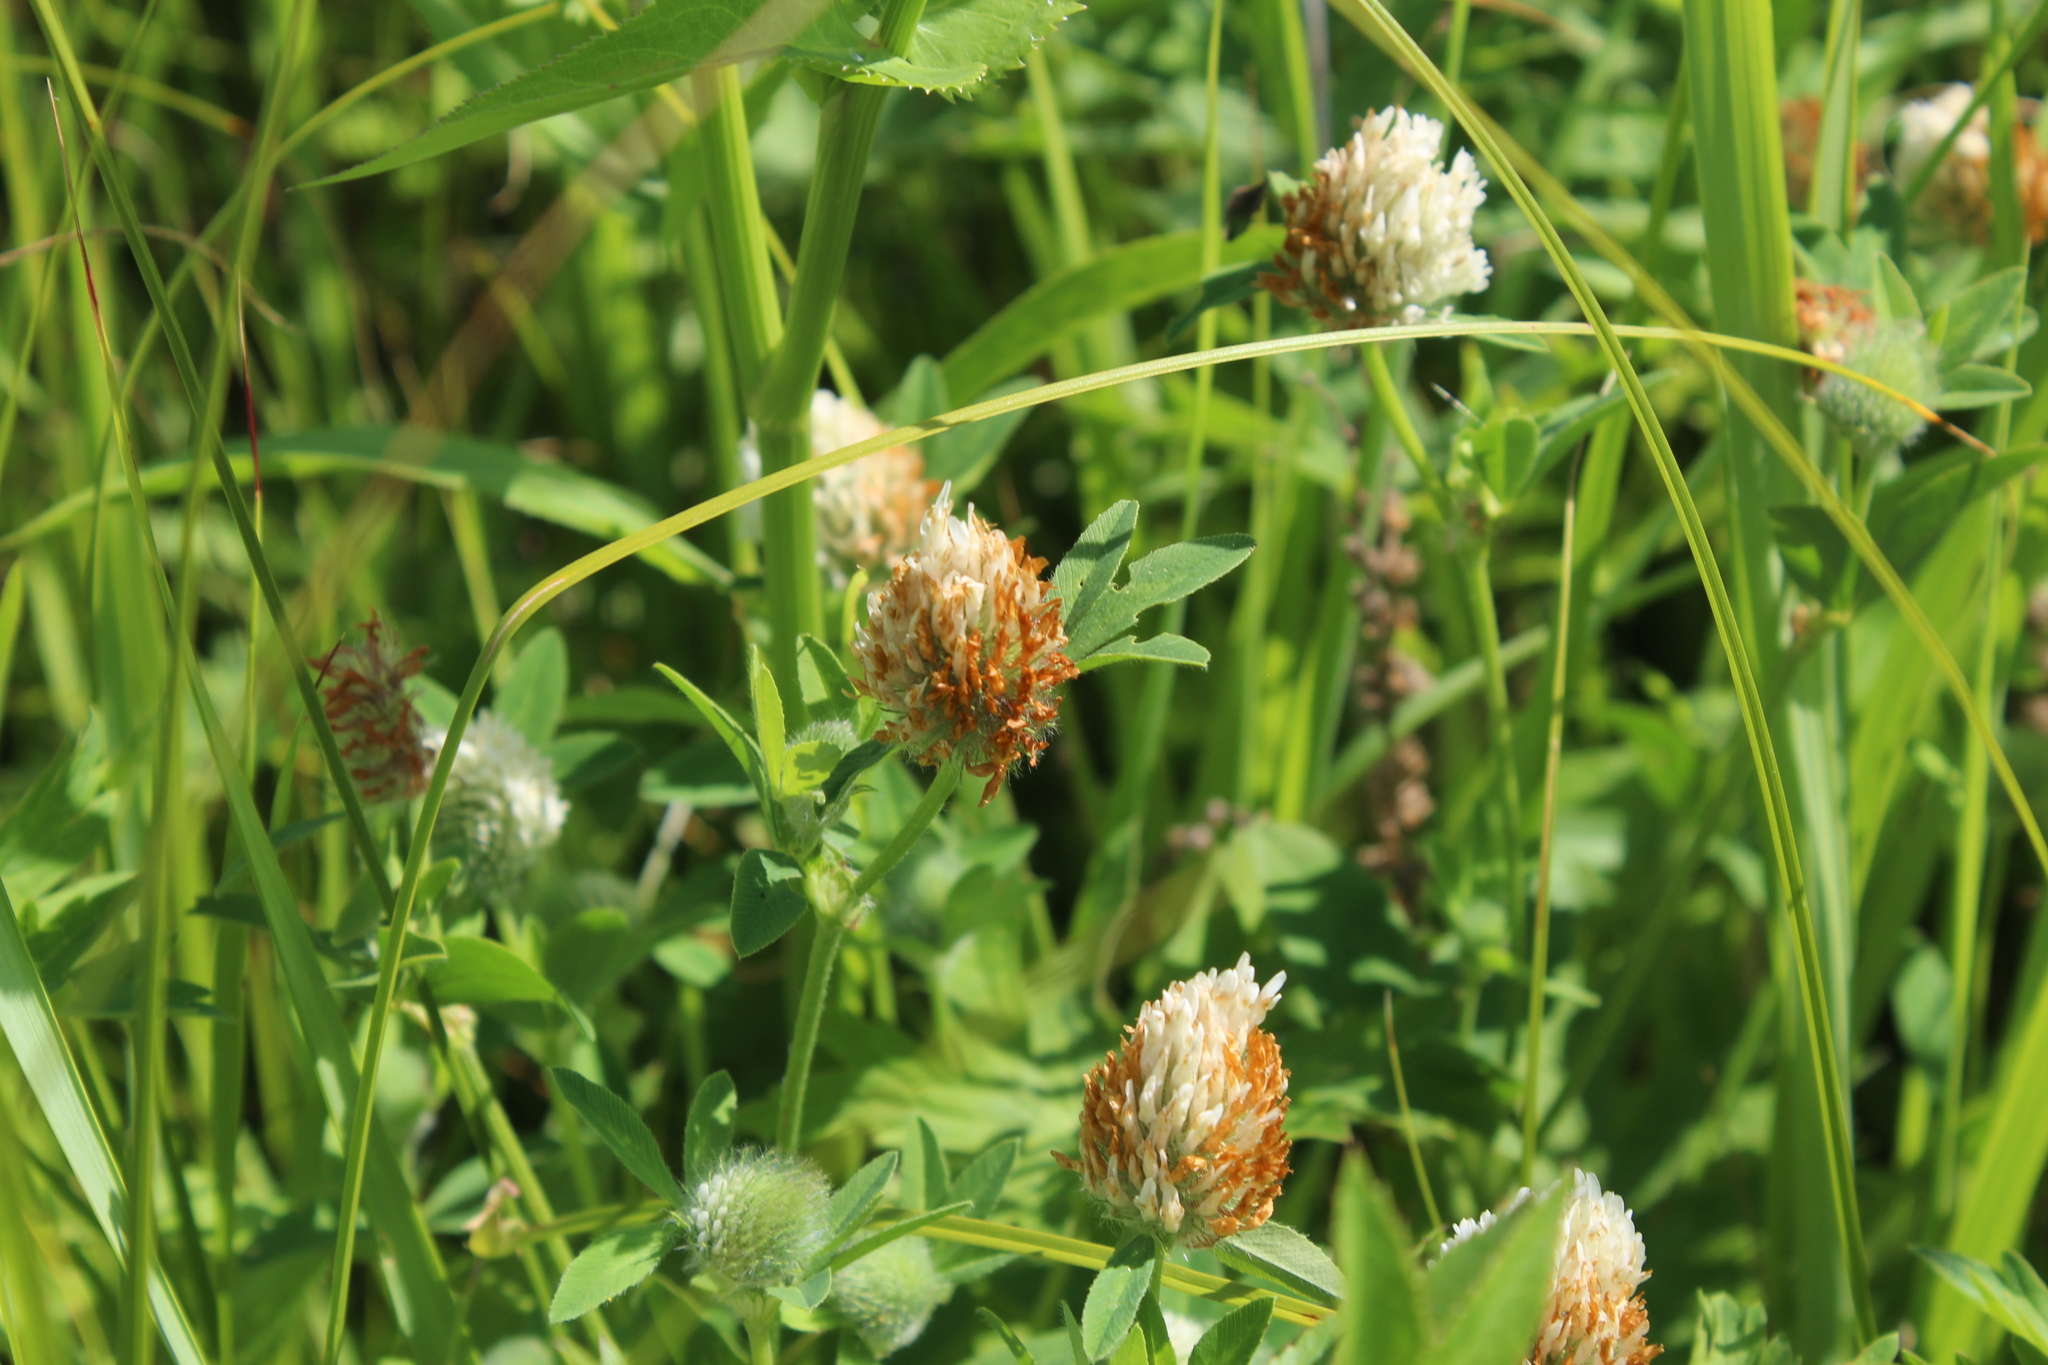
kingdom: Plantae
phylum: Tracheophyta
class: Magnoliopsida
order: Fabales
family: Fabaceae
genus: Trifolium
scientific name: Trifolium pratense
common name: Red clover
